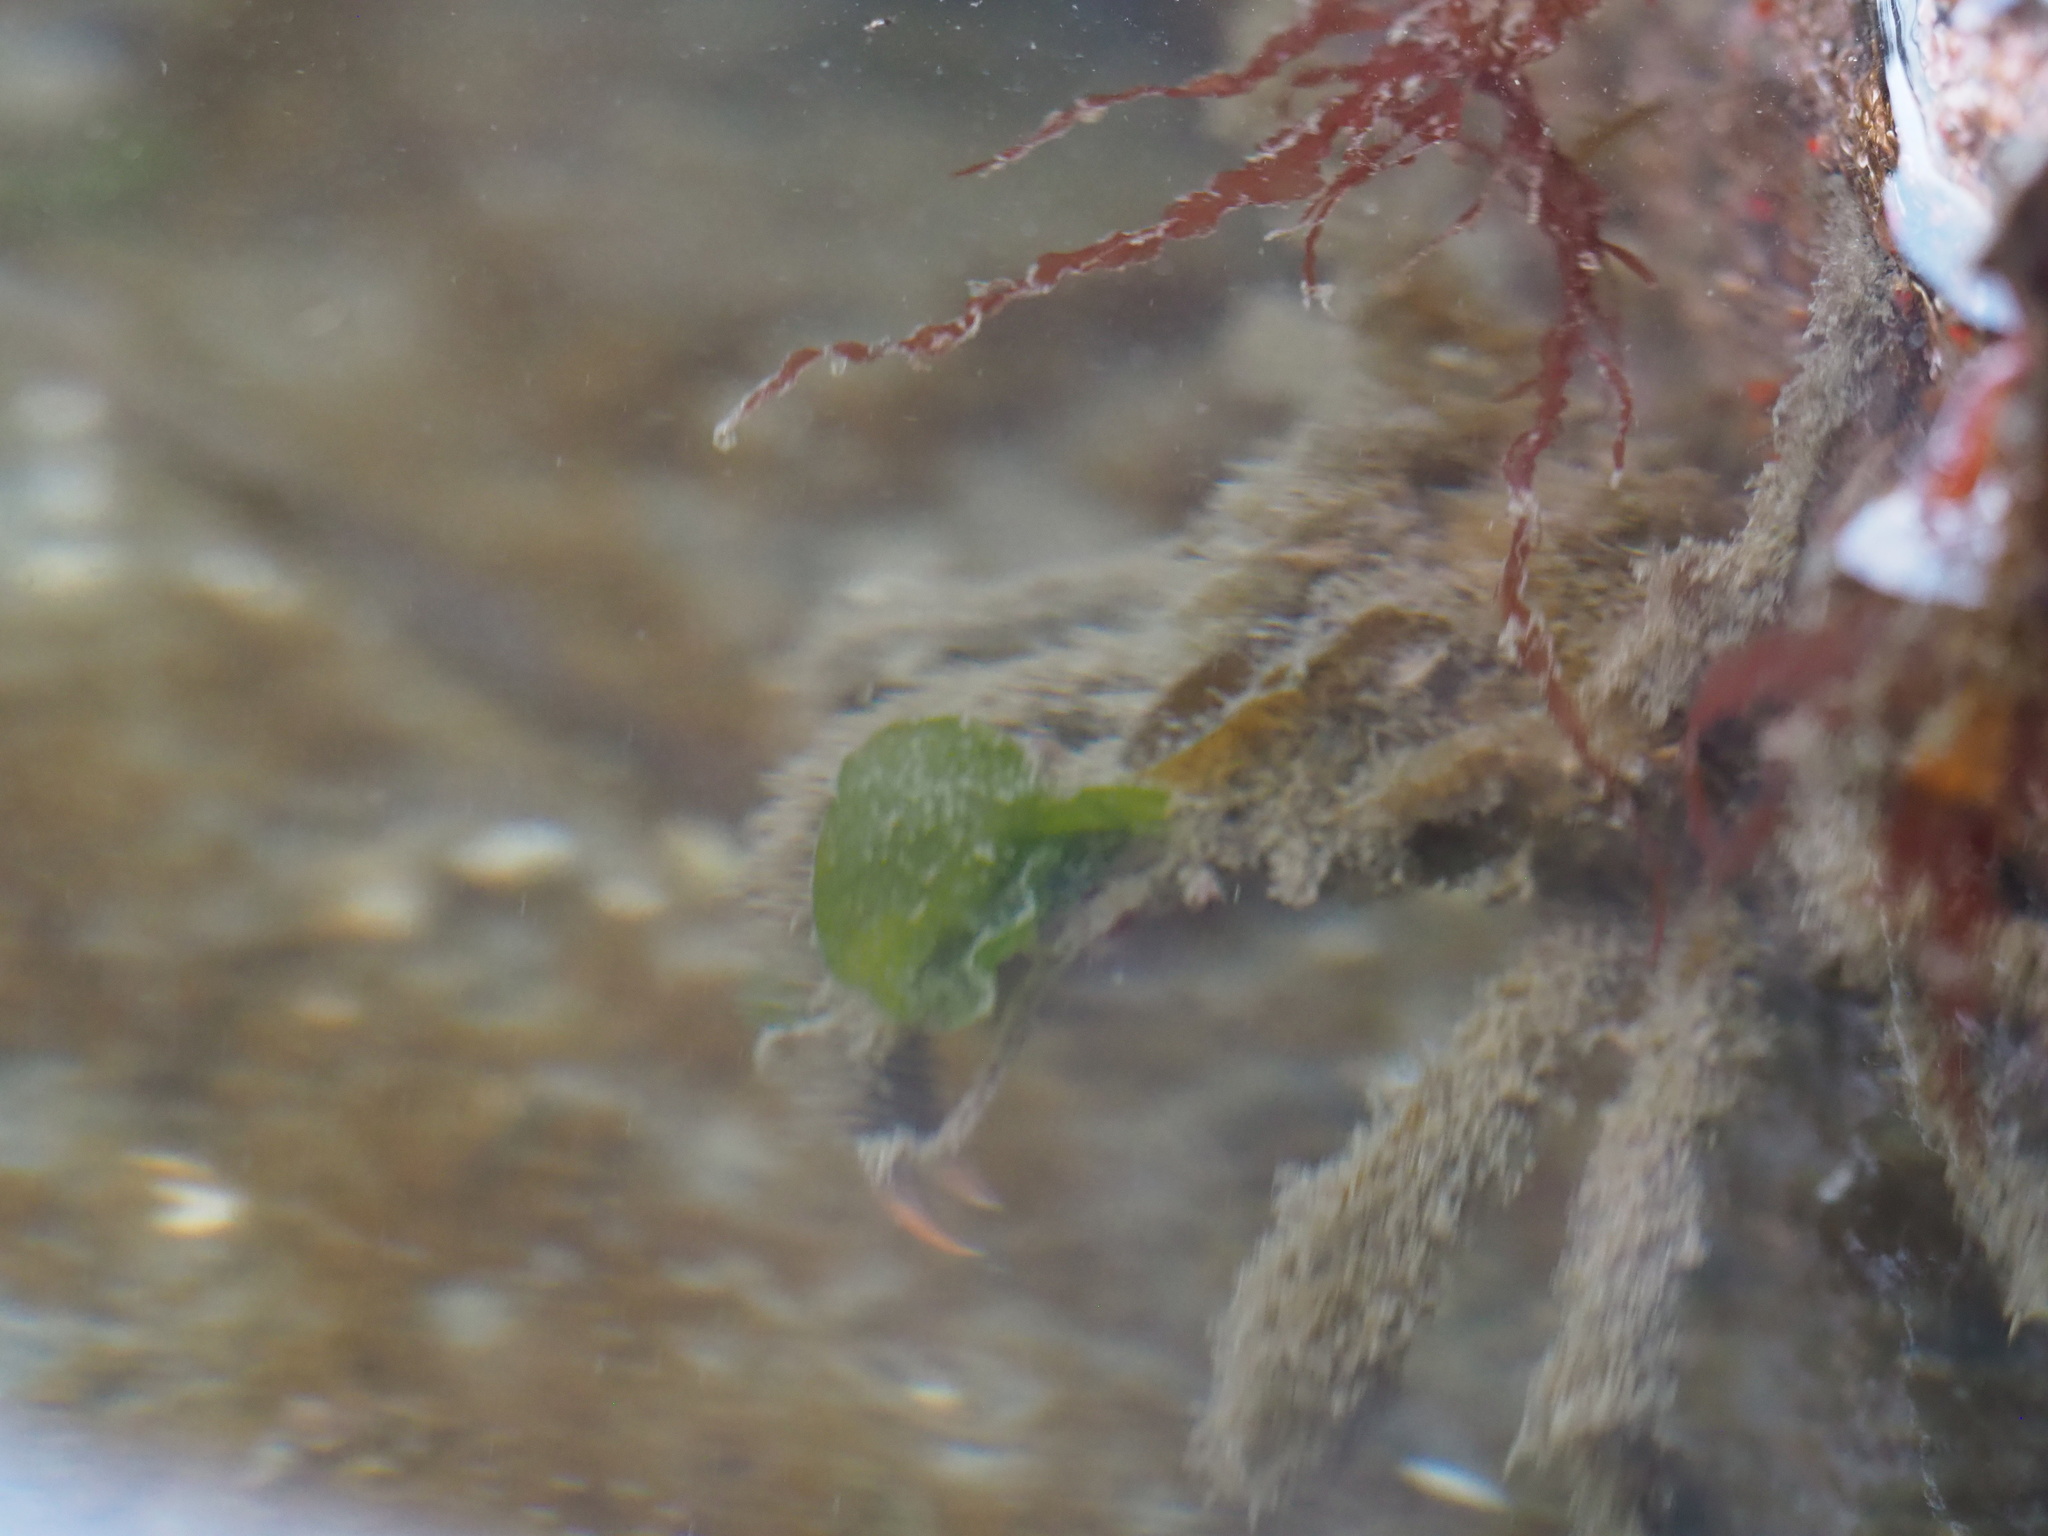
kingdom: Animalia
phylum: Arthropoda
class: Malacostraca
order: Decapoda
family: Oregoniidae
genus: Oregonia
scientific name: Oregonia gracilis
